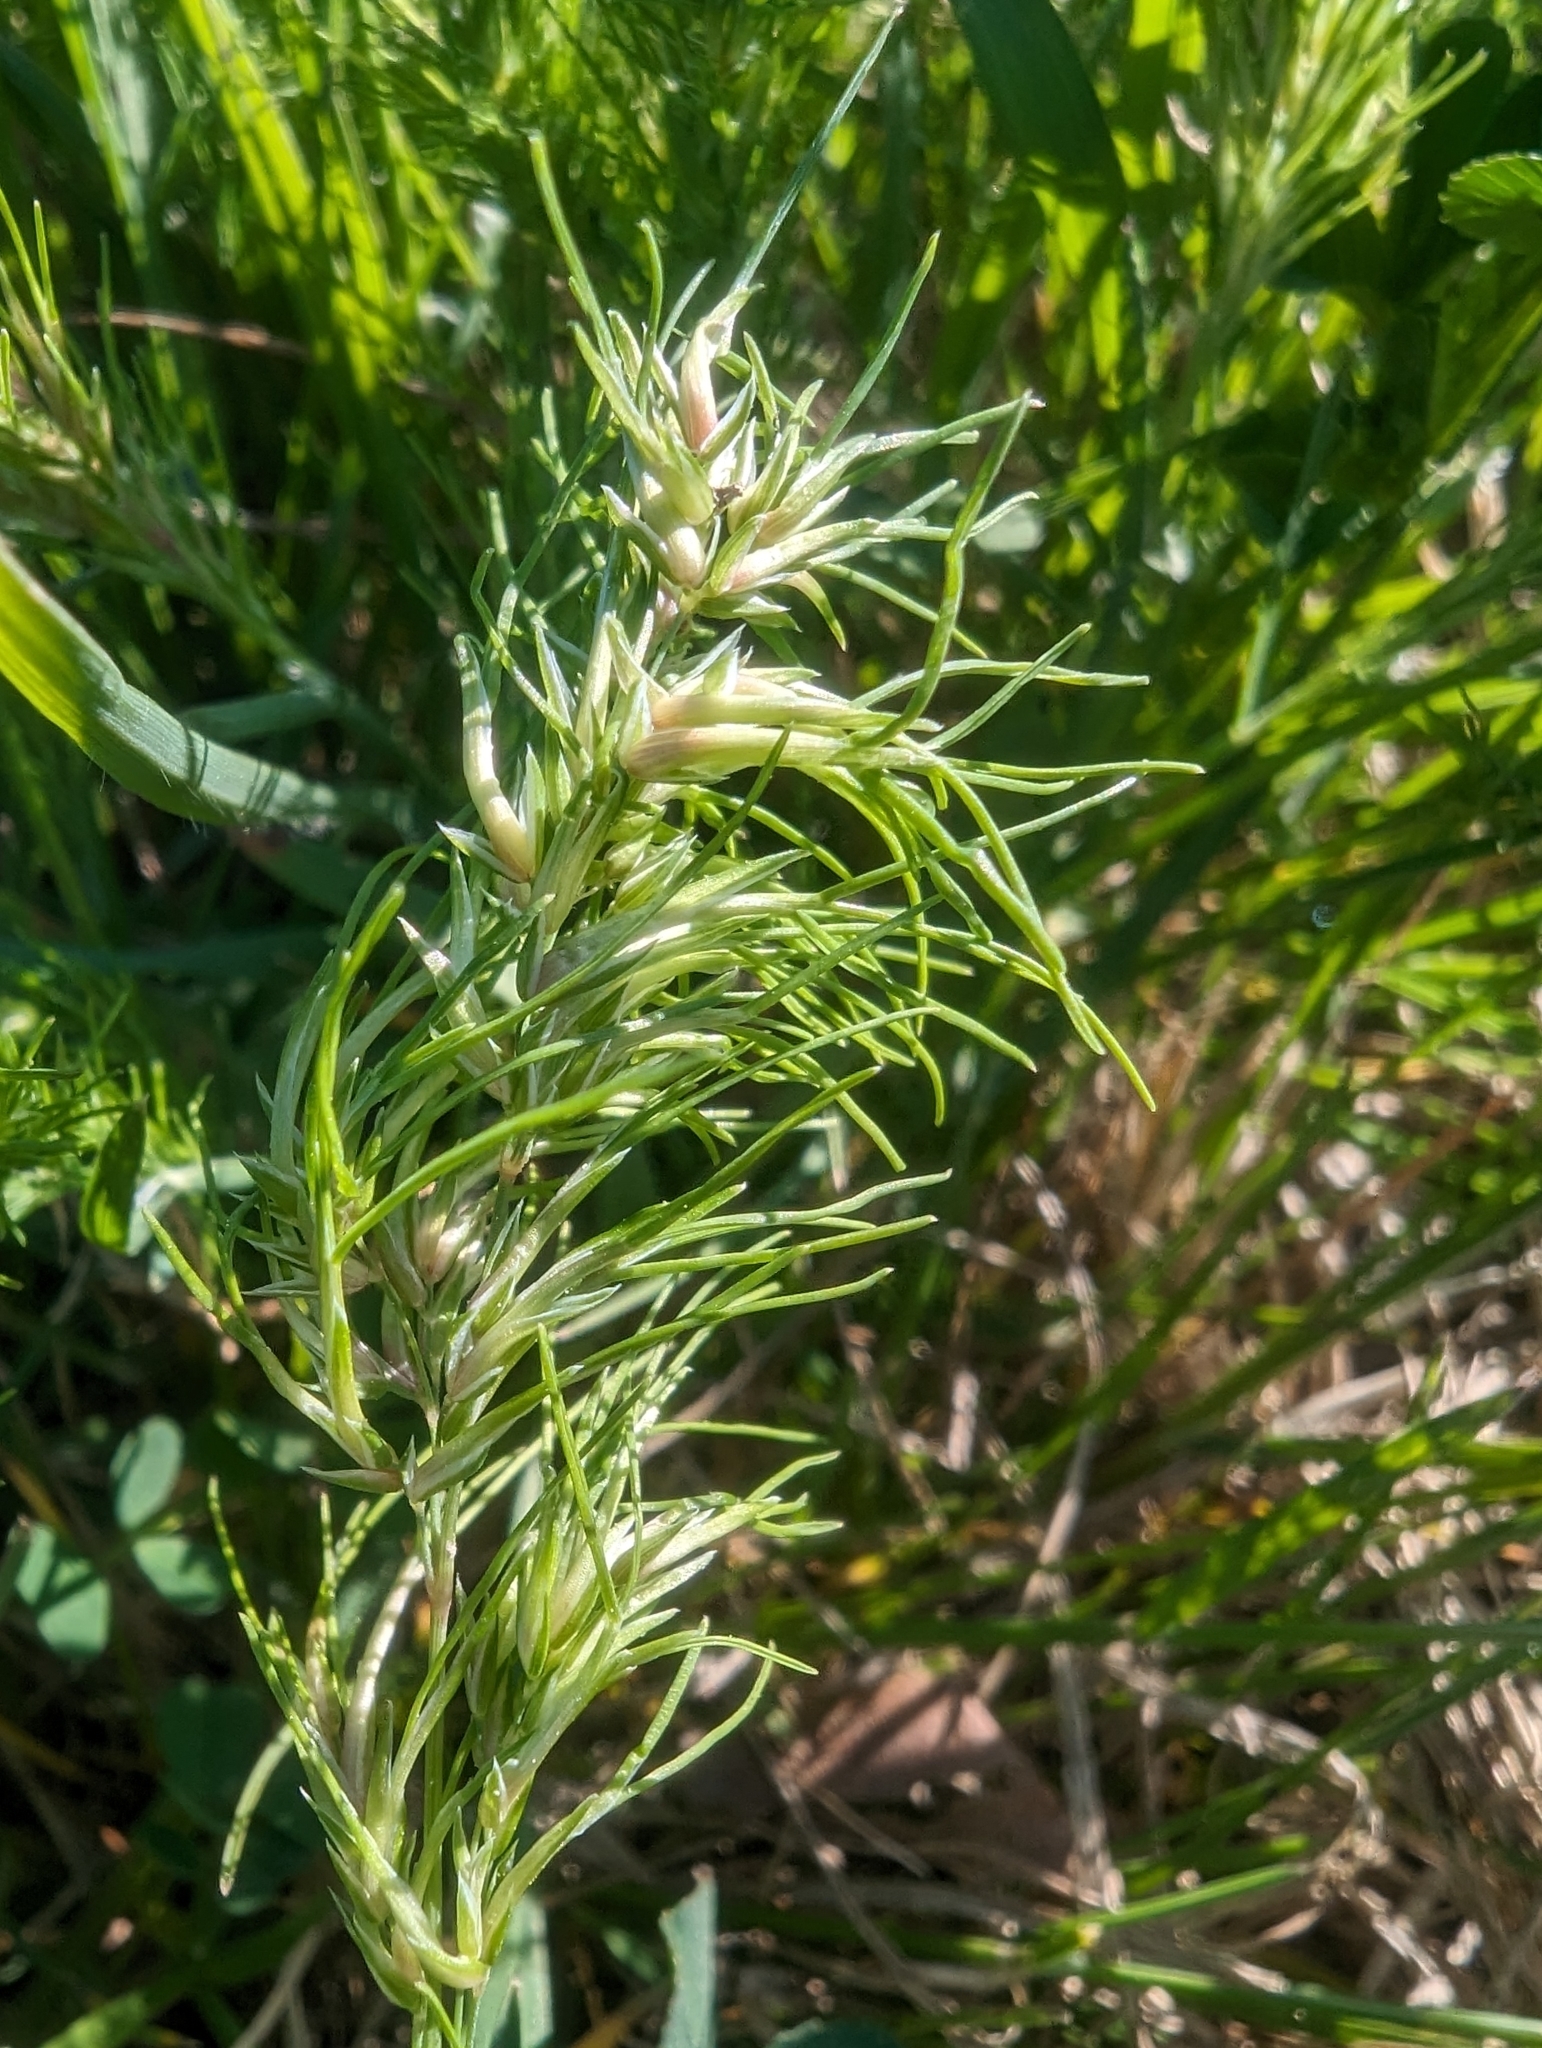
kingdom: Plantae
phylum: Tracheophyta
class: Liliopsida
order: Poales
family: Poaceae
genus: Poa
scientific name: Poa bulbosa
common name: Bulbous bluegrass
